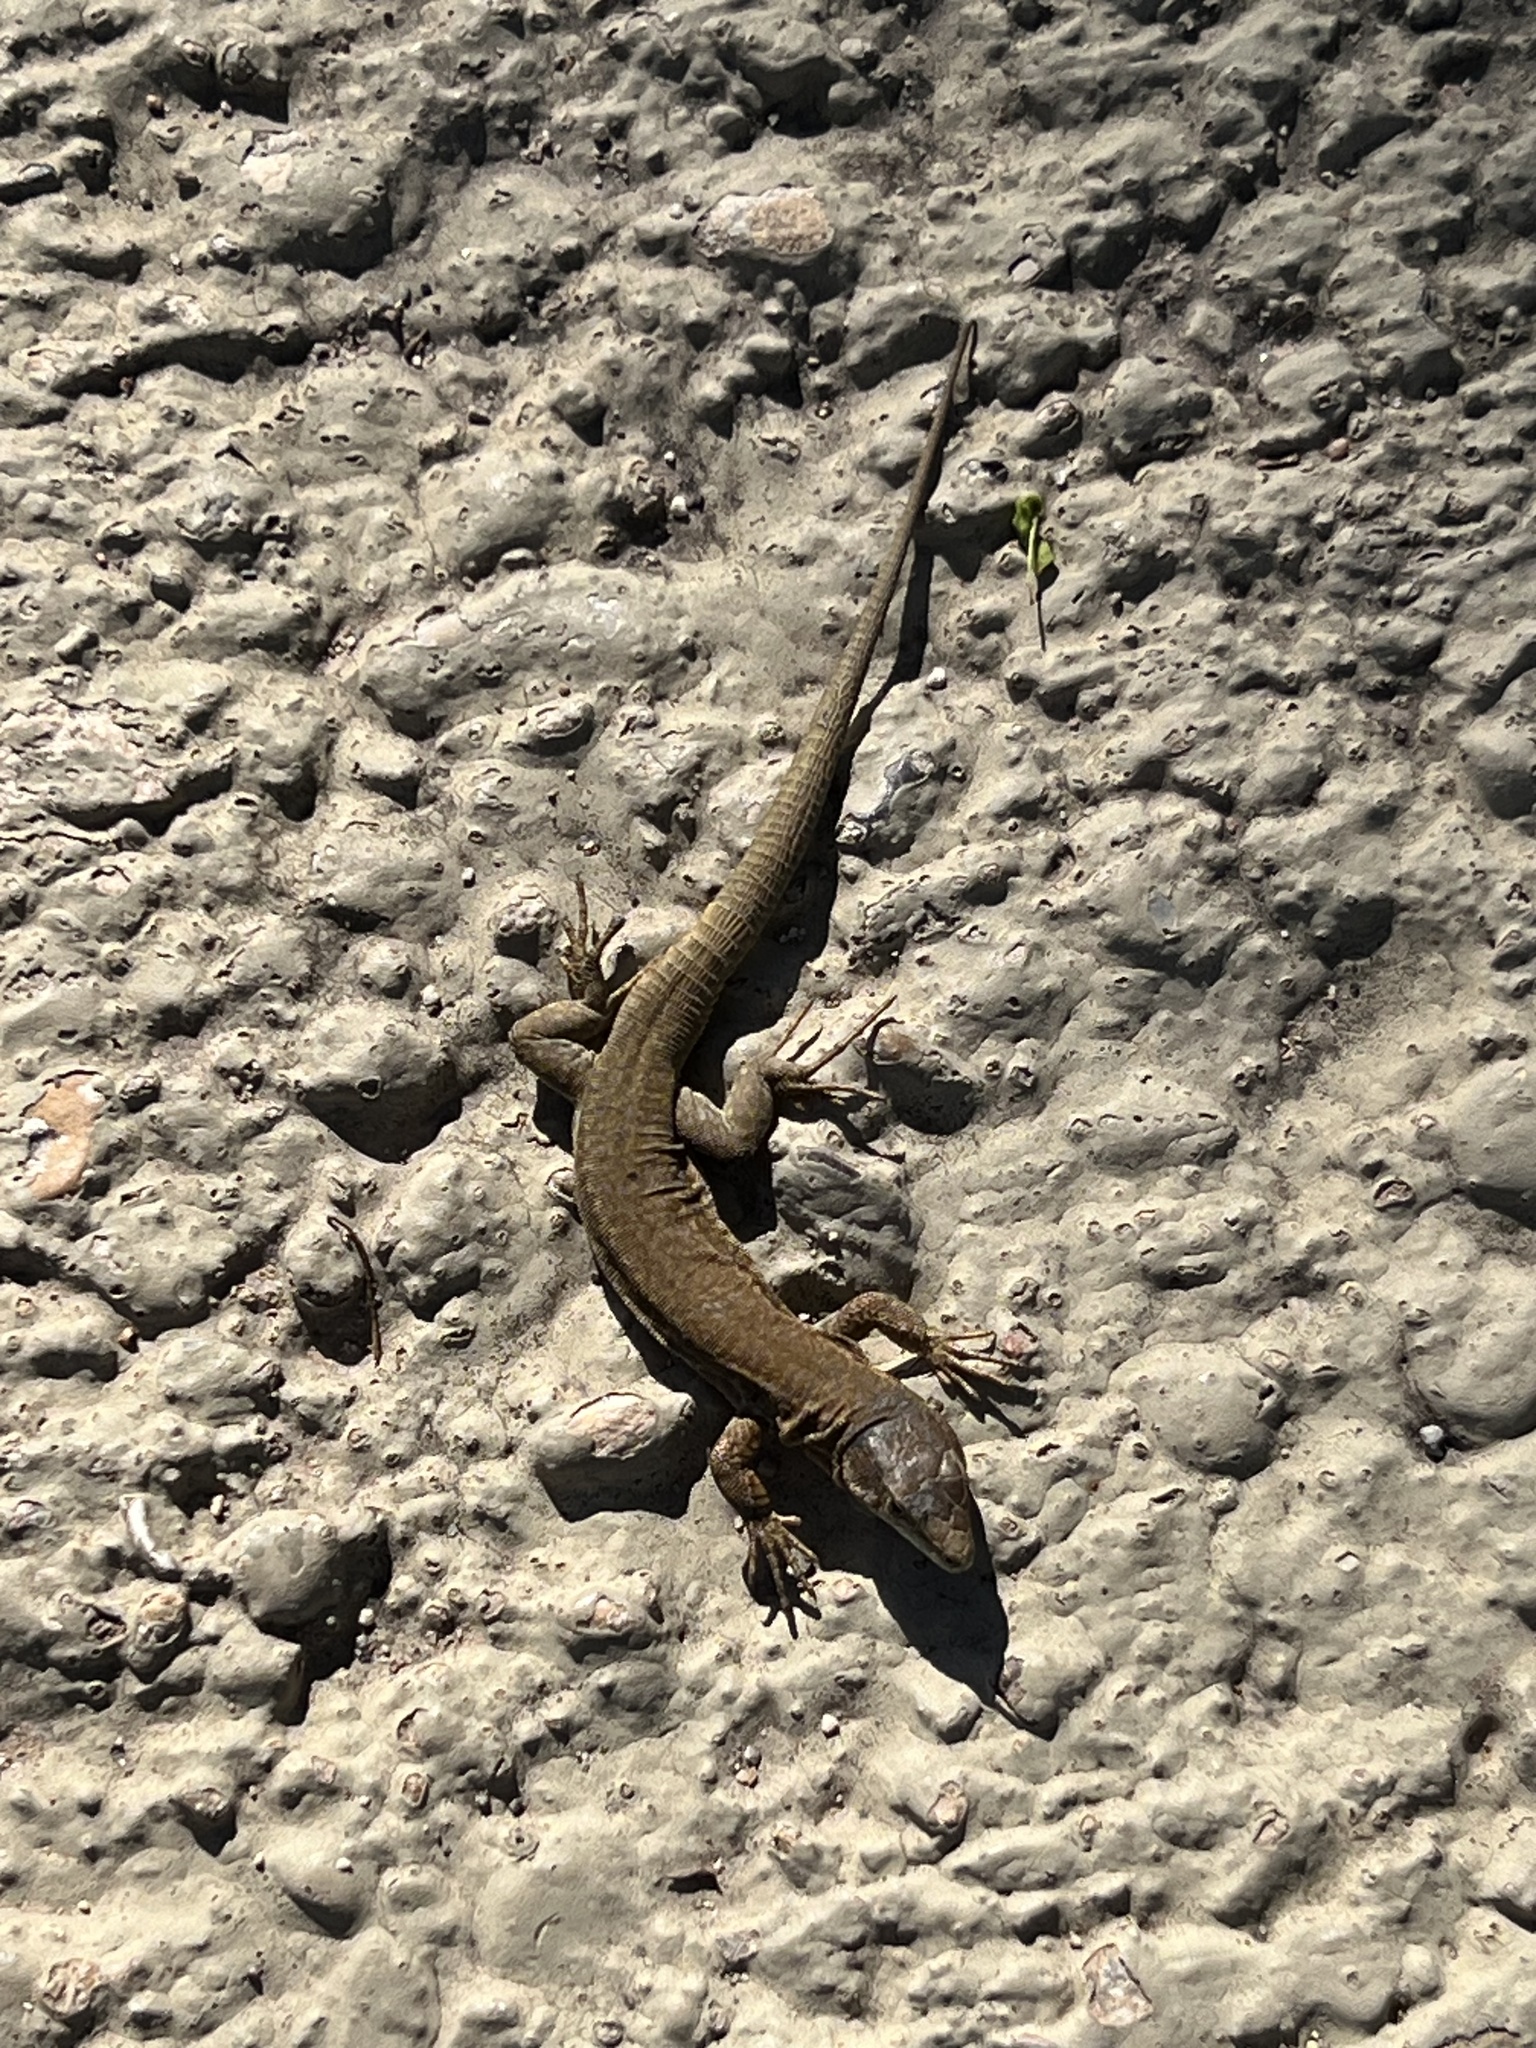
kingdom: Animalia
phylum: Chordata
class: Squamata
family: Lacertidae
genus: Podarcis
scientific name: Podarcis liolepis
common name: Catalonian wall lizard
